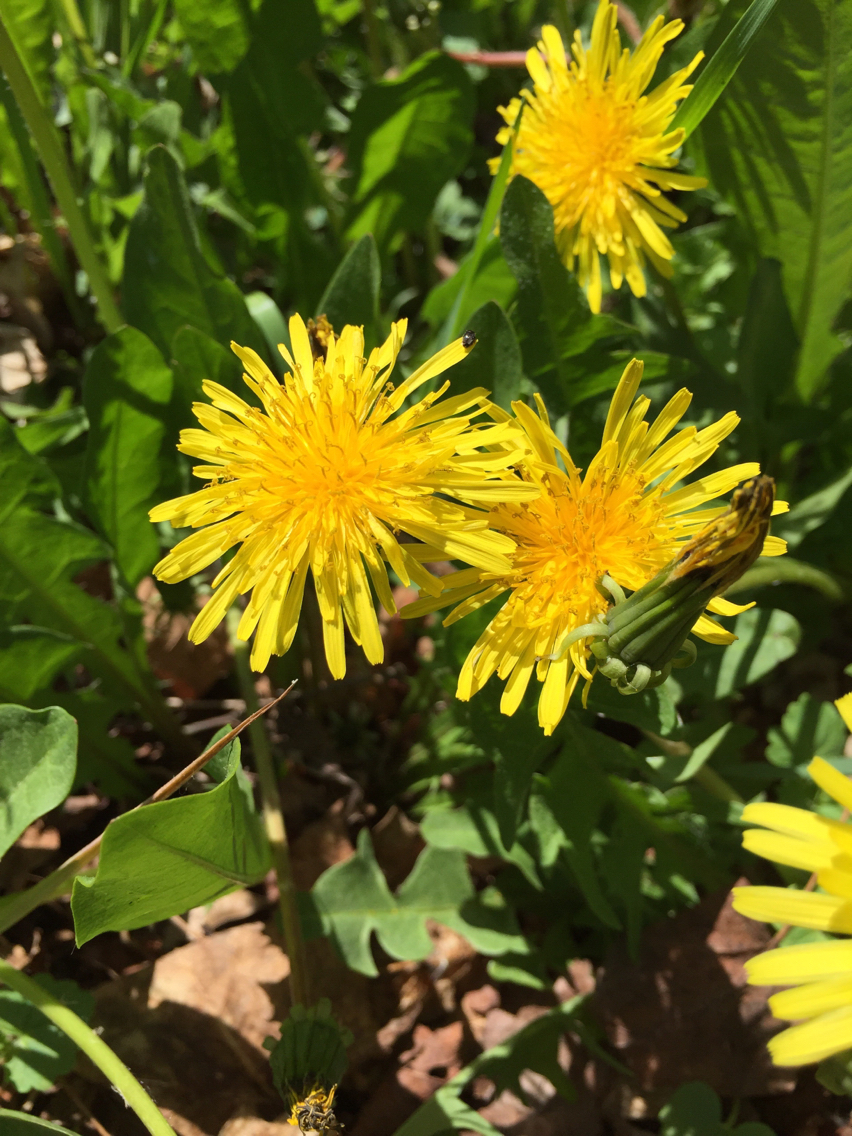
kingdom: Plantae
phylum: Tracheophyta
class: Magnoliopsida
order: Asterales
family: Asteraceae
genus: Taraxacum
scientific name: Taraxacum officinale
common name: Common dandelion
